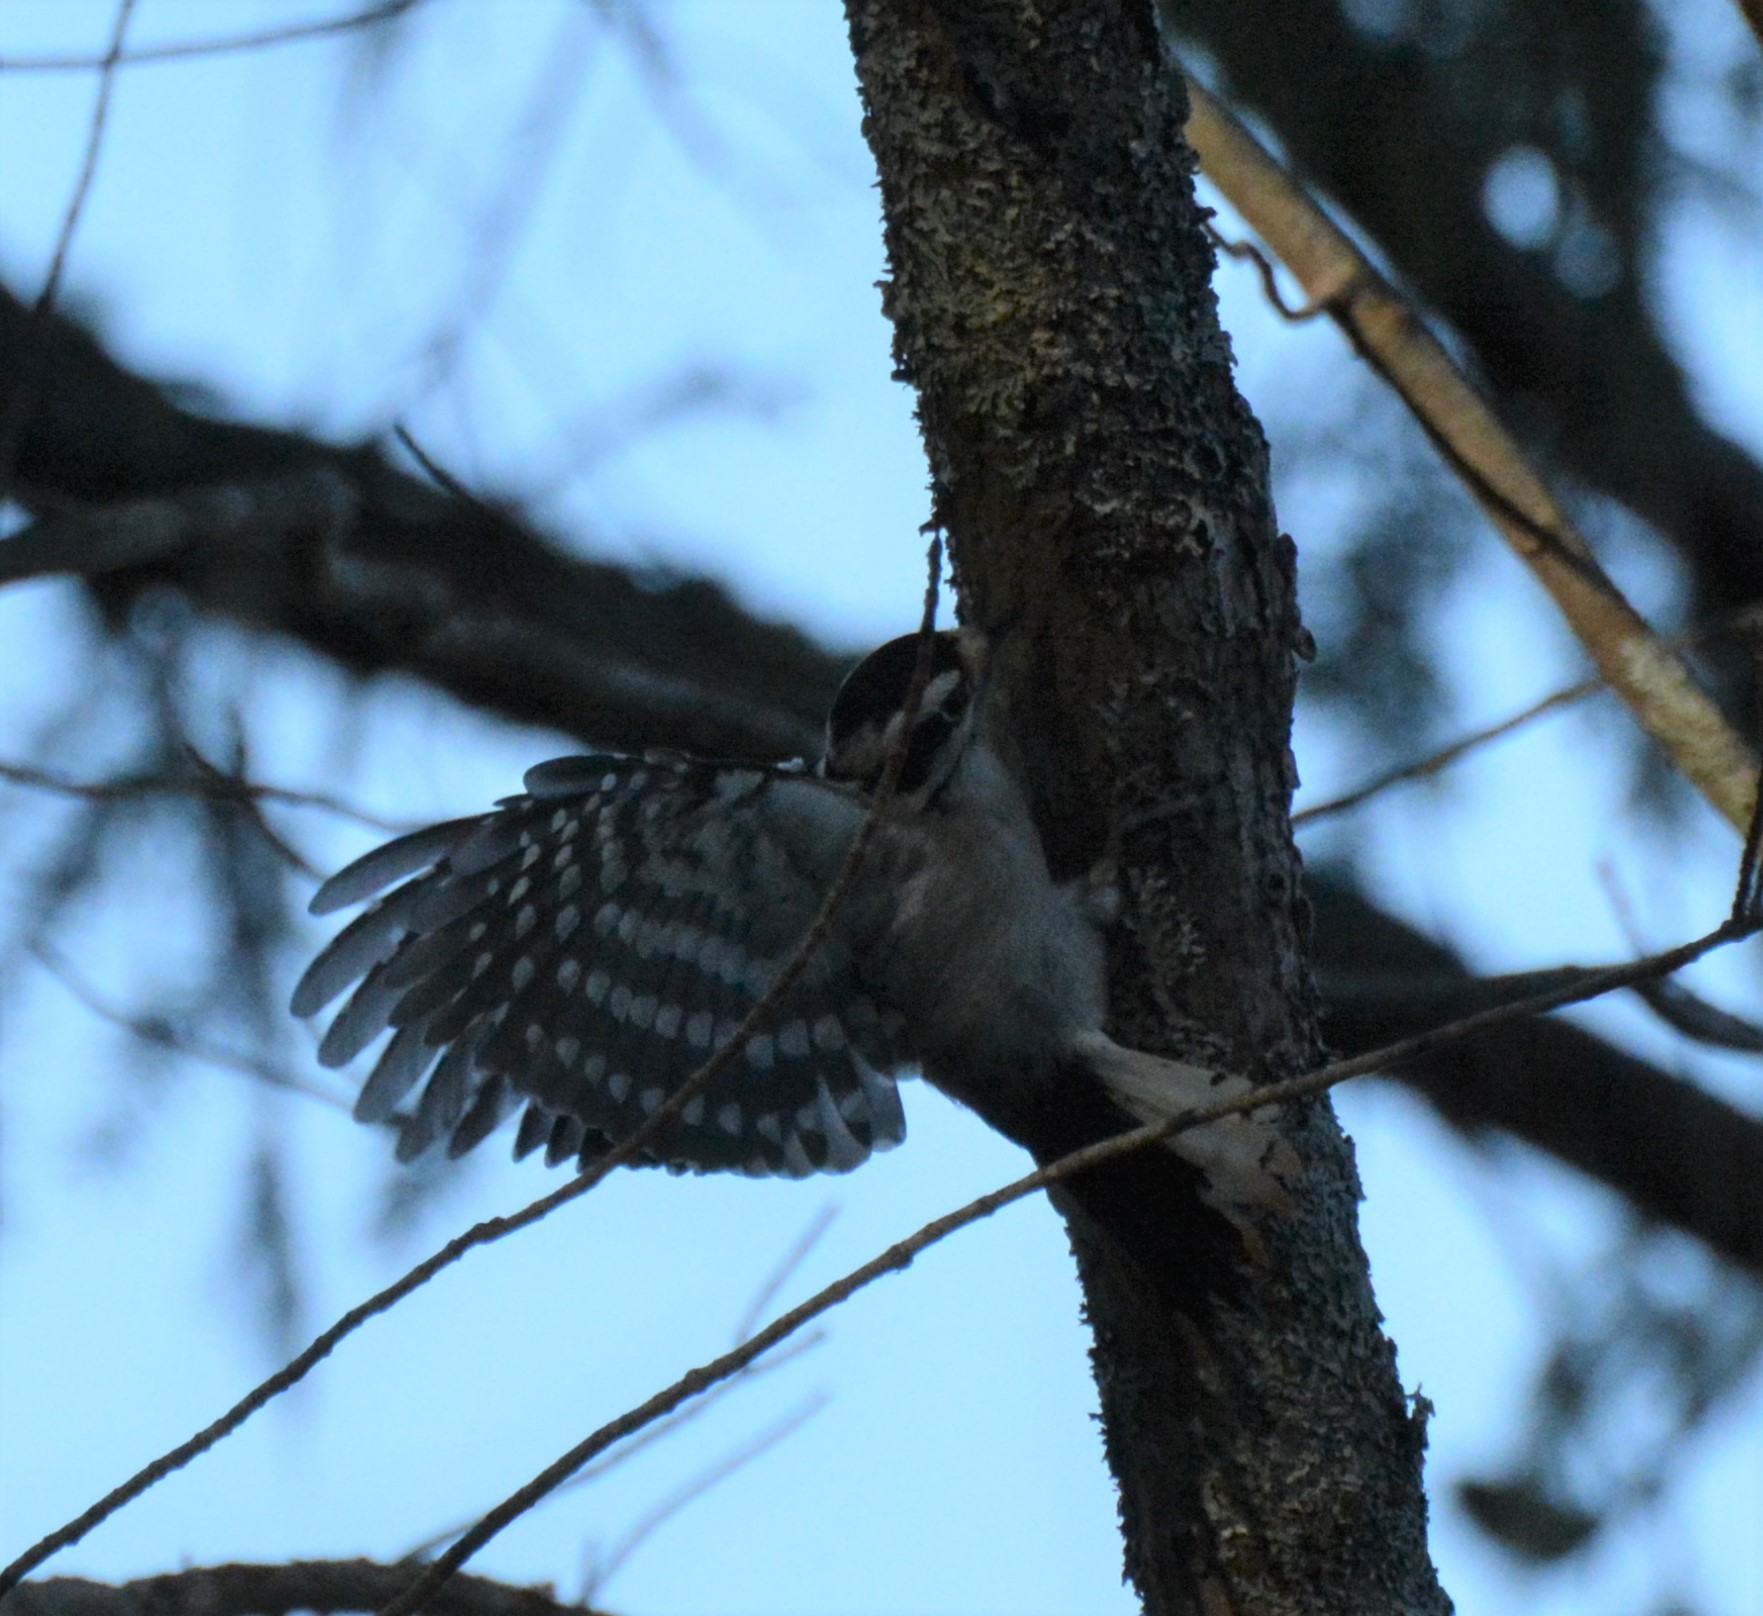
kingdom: Animalia
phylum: Chordata
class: Aves
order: Piciformes
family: Picidae
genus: Dryobates
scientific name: Dryobates pubescens
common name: Downy woodpecker
